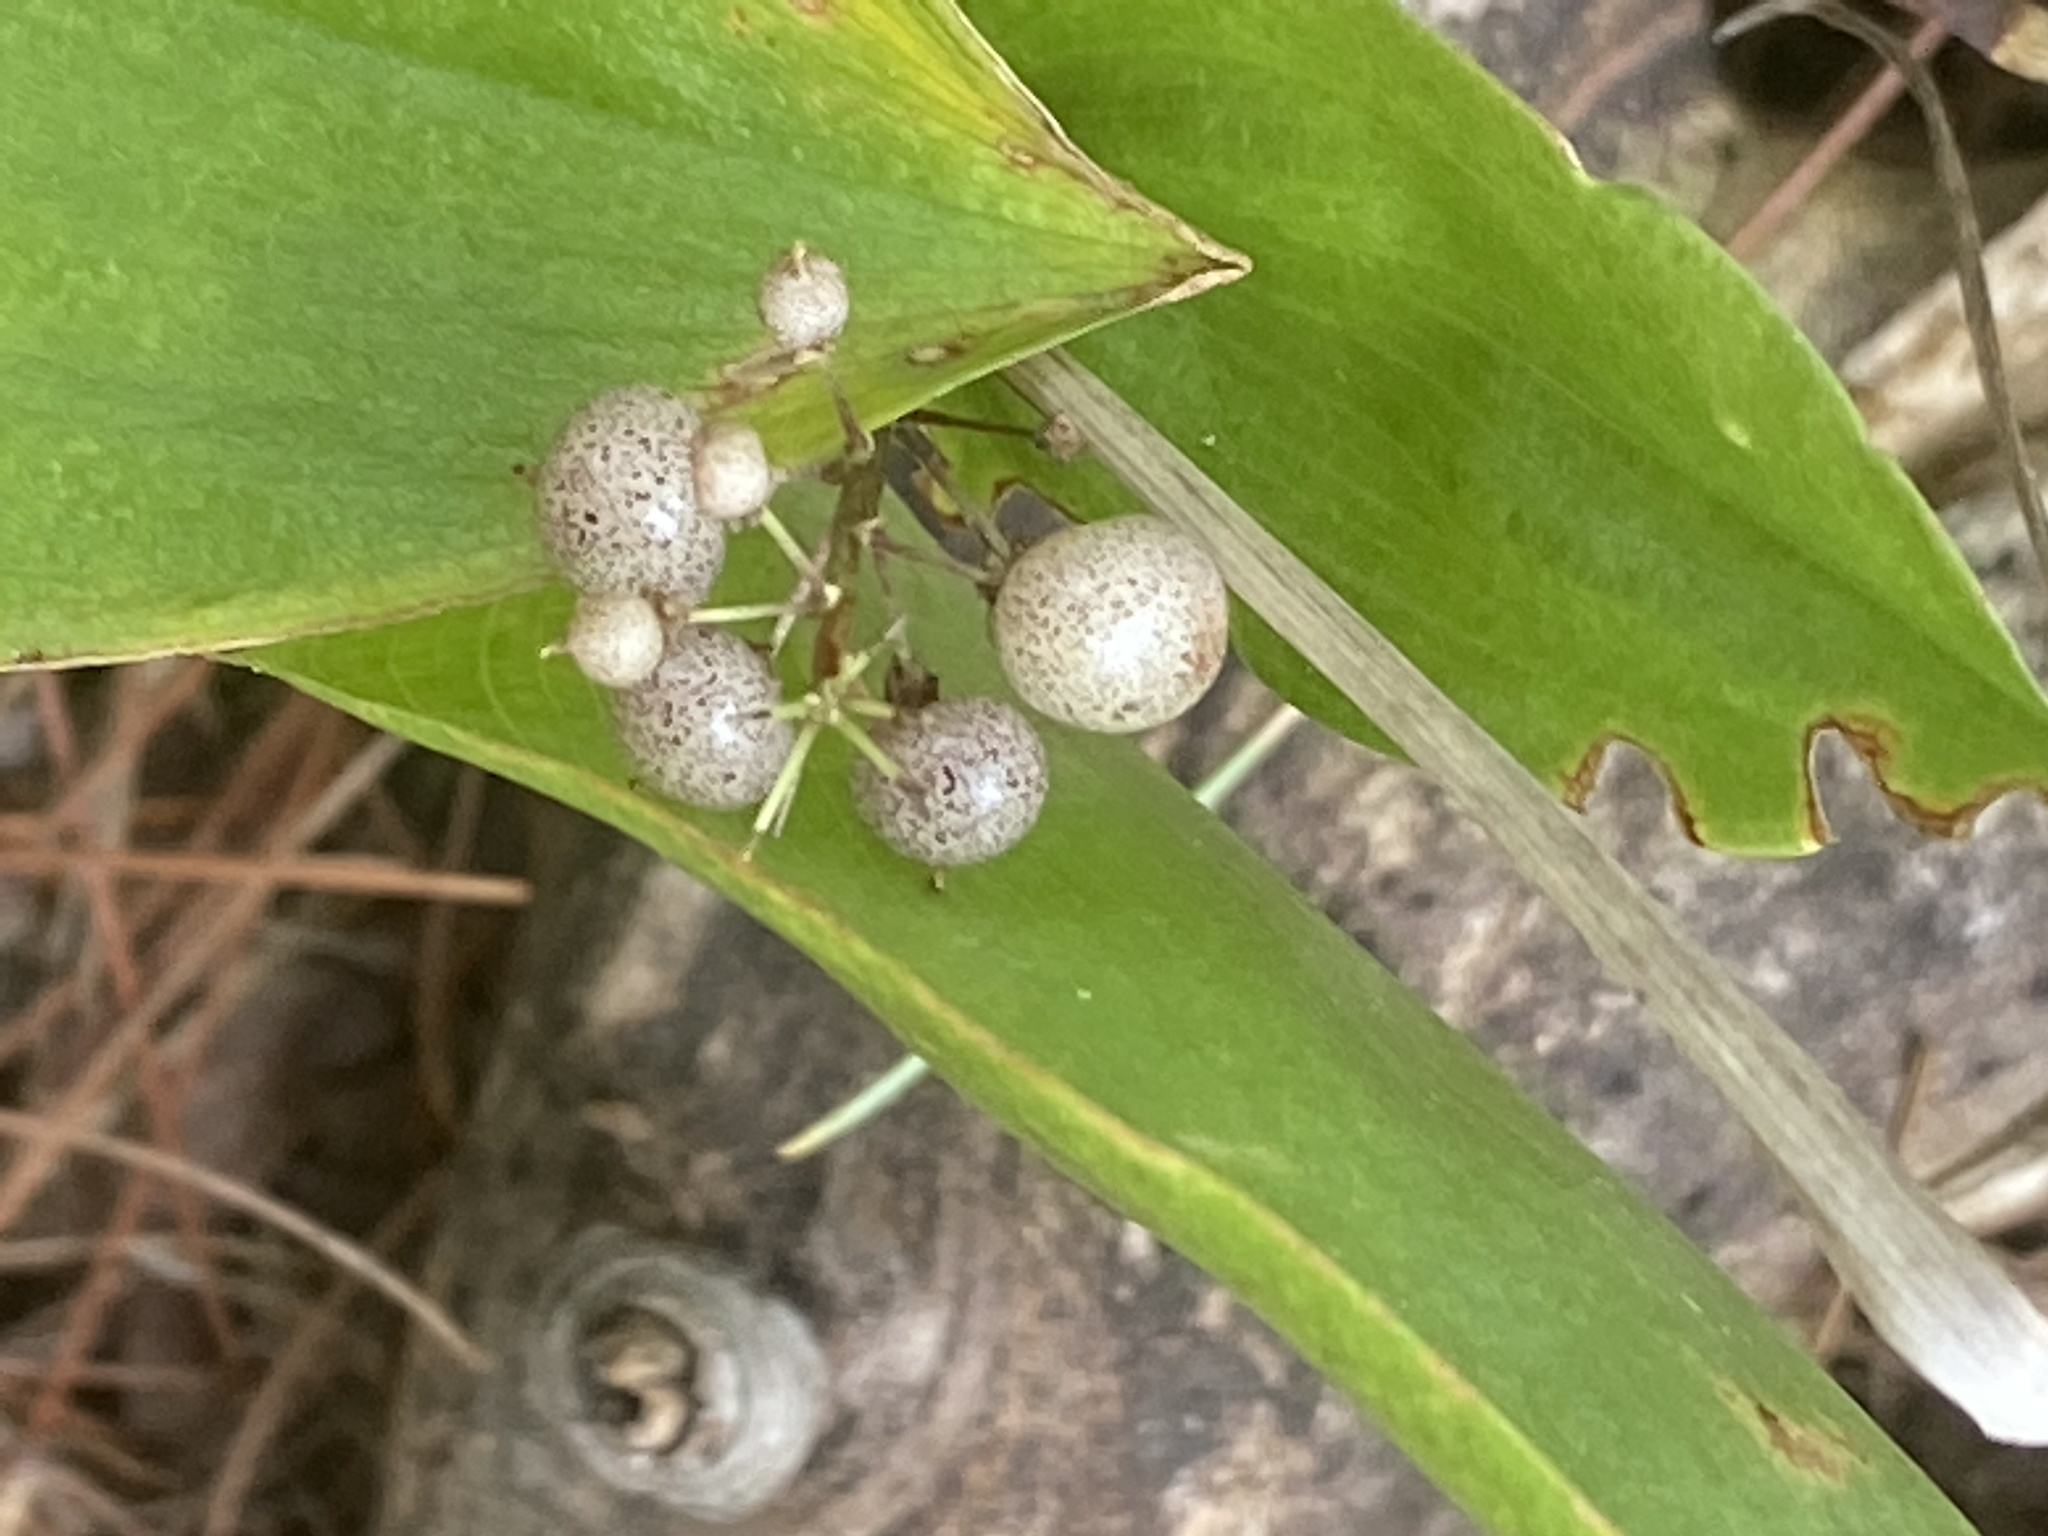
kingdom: Plantae
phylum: Tracheophyta
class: Liliopsida
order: Asparagales
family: Asparagaceae
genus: Maianthemum
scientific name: Maianthemum canadense
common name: False lily-of-the-valley
